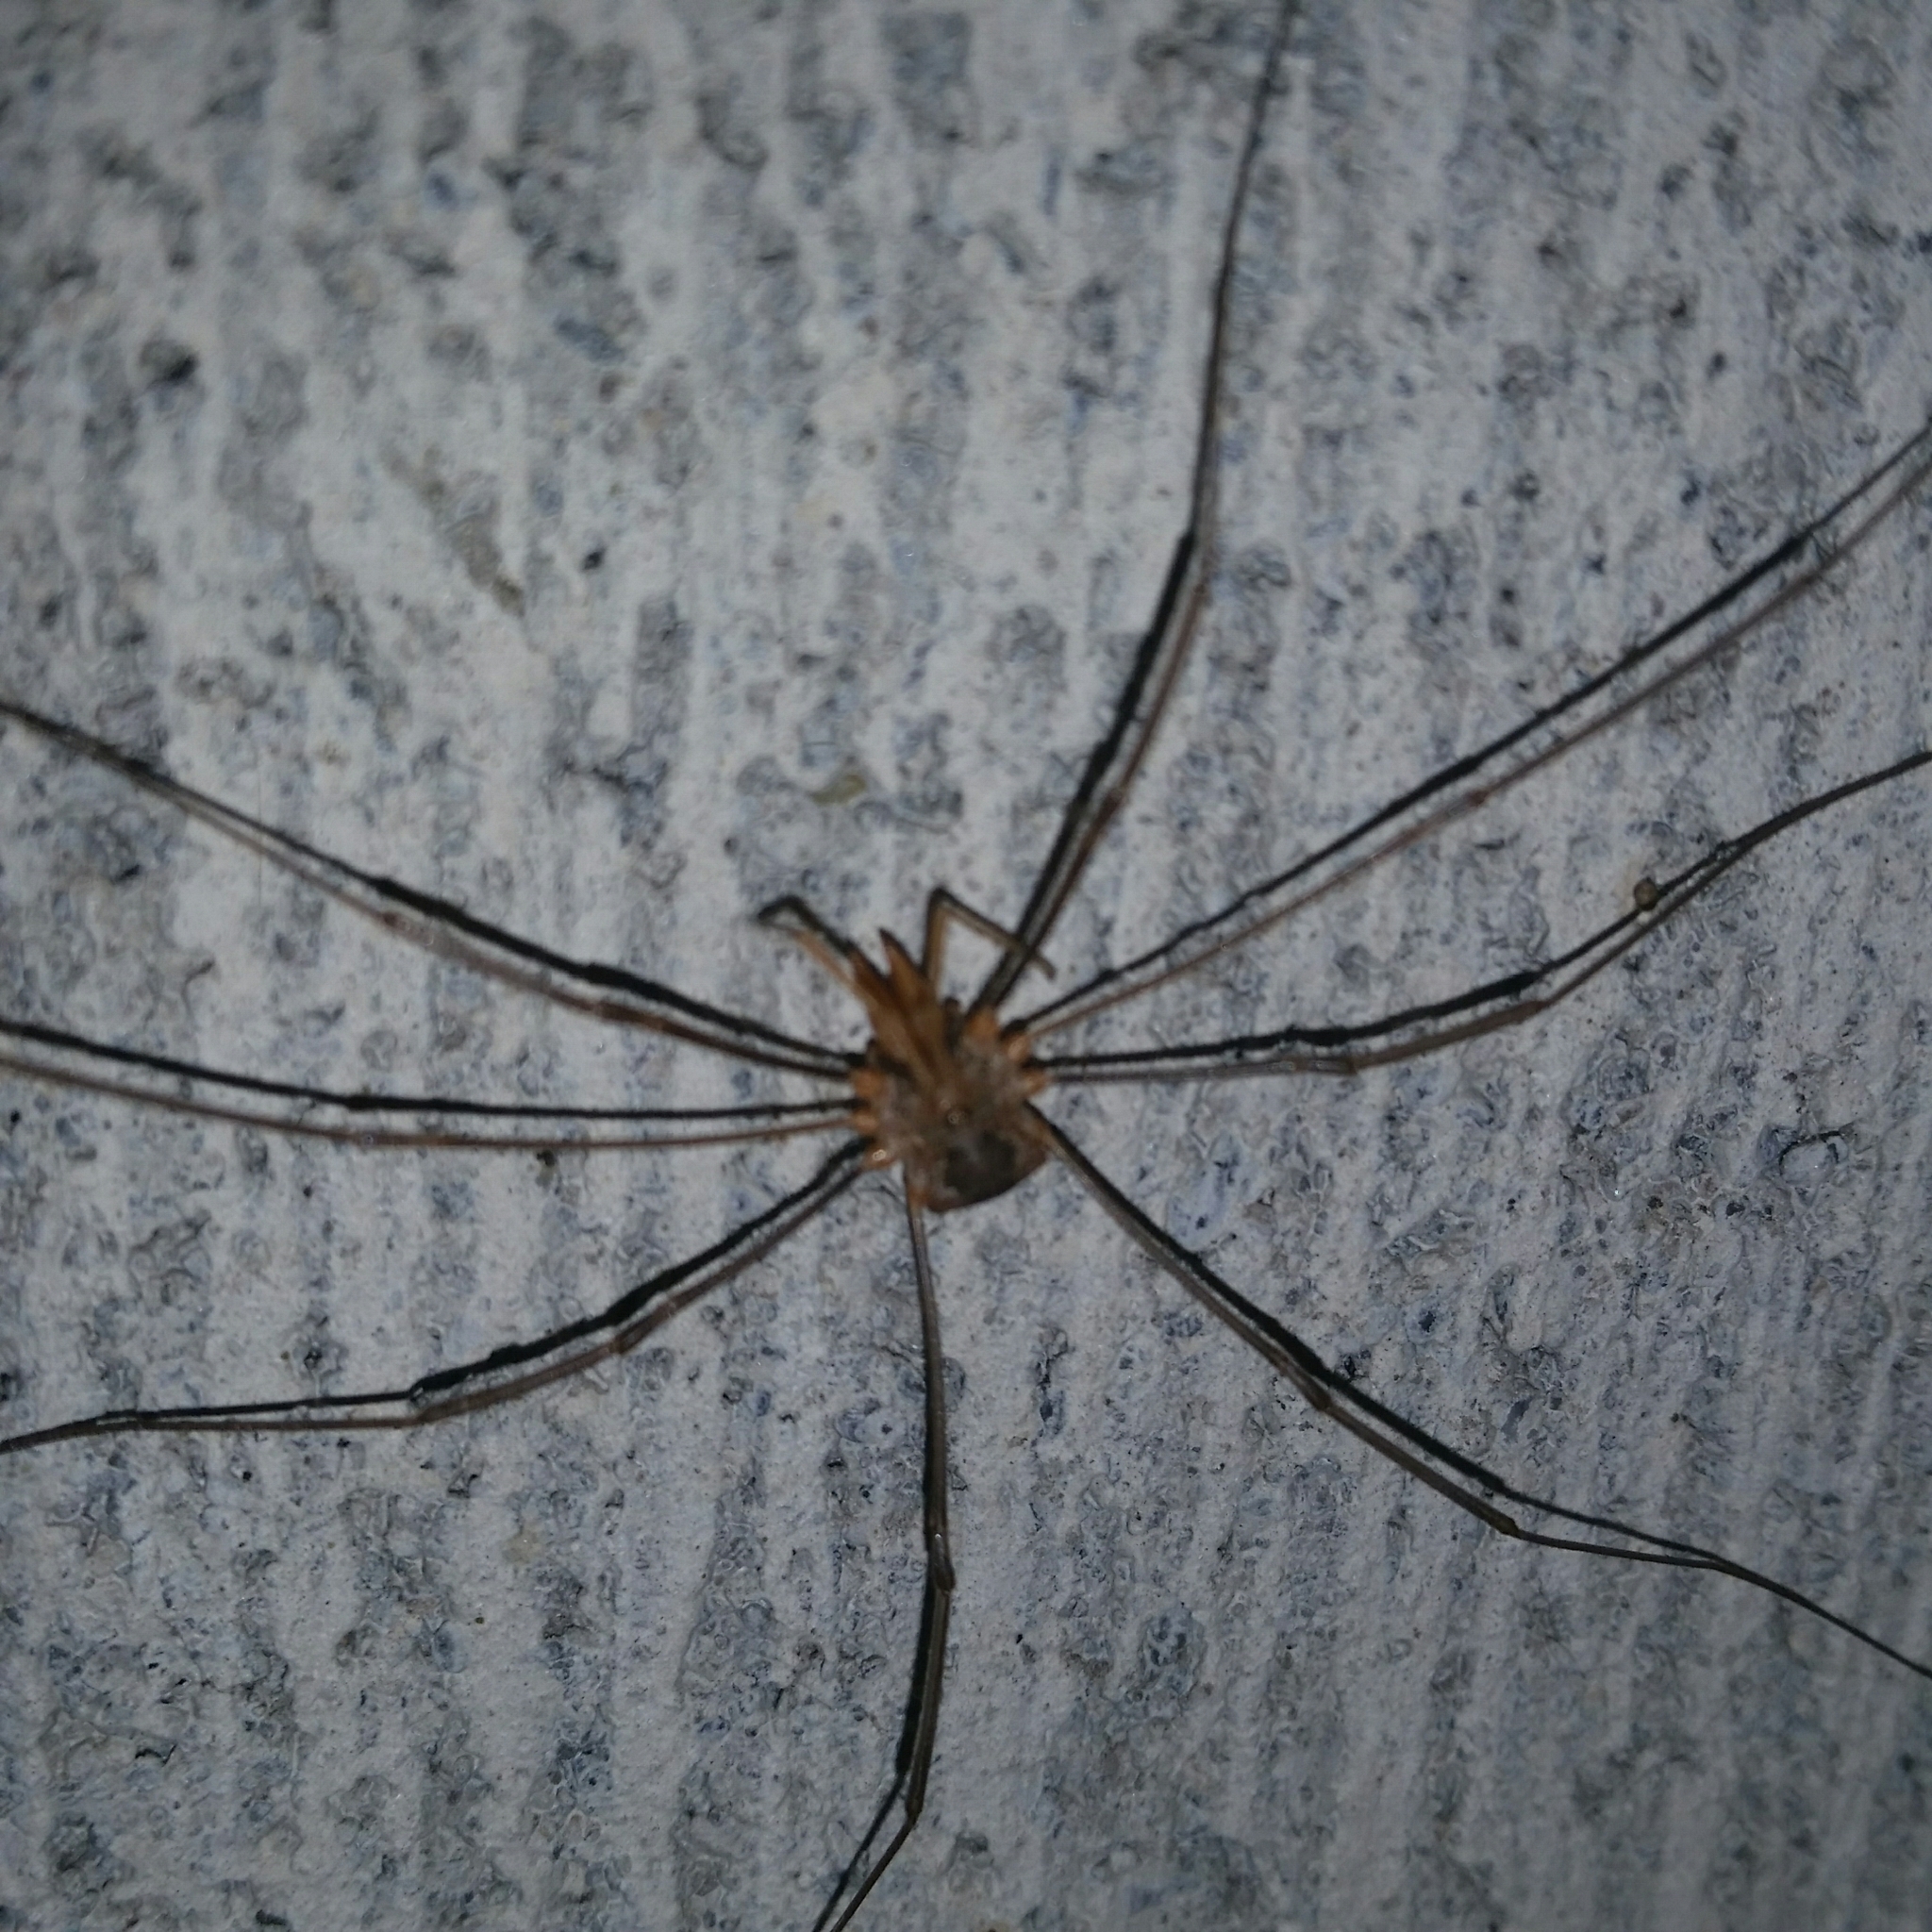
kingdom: Animalia
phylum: Arthropoda
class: Arachnida
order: Opiliones
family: Phalangiidae
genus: Phalangium
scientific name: Phalangium opilio
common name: Daddy longleg
